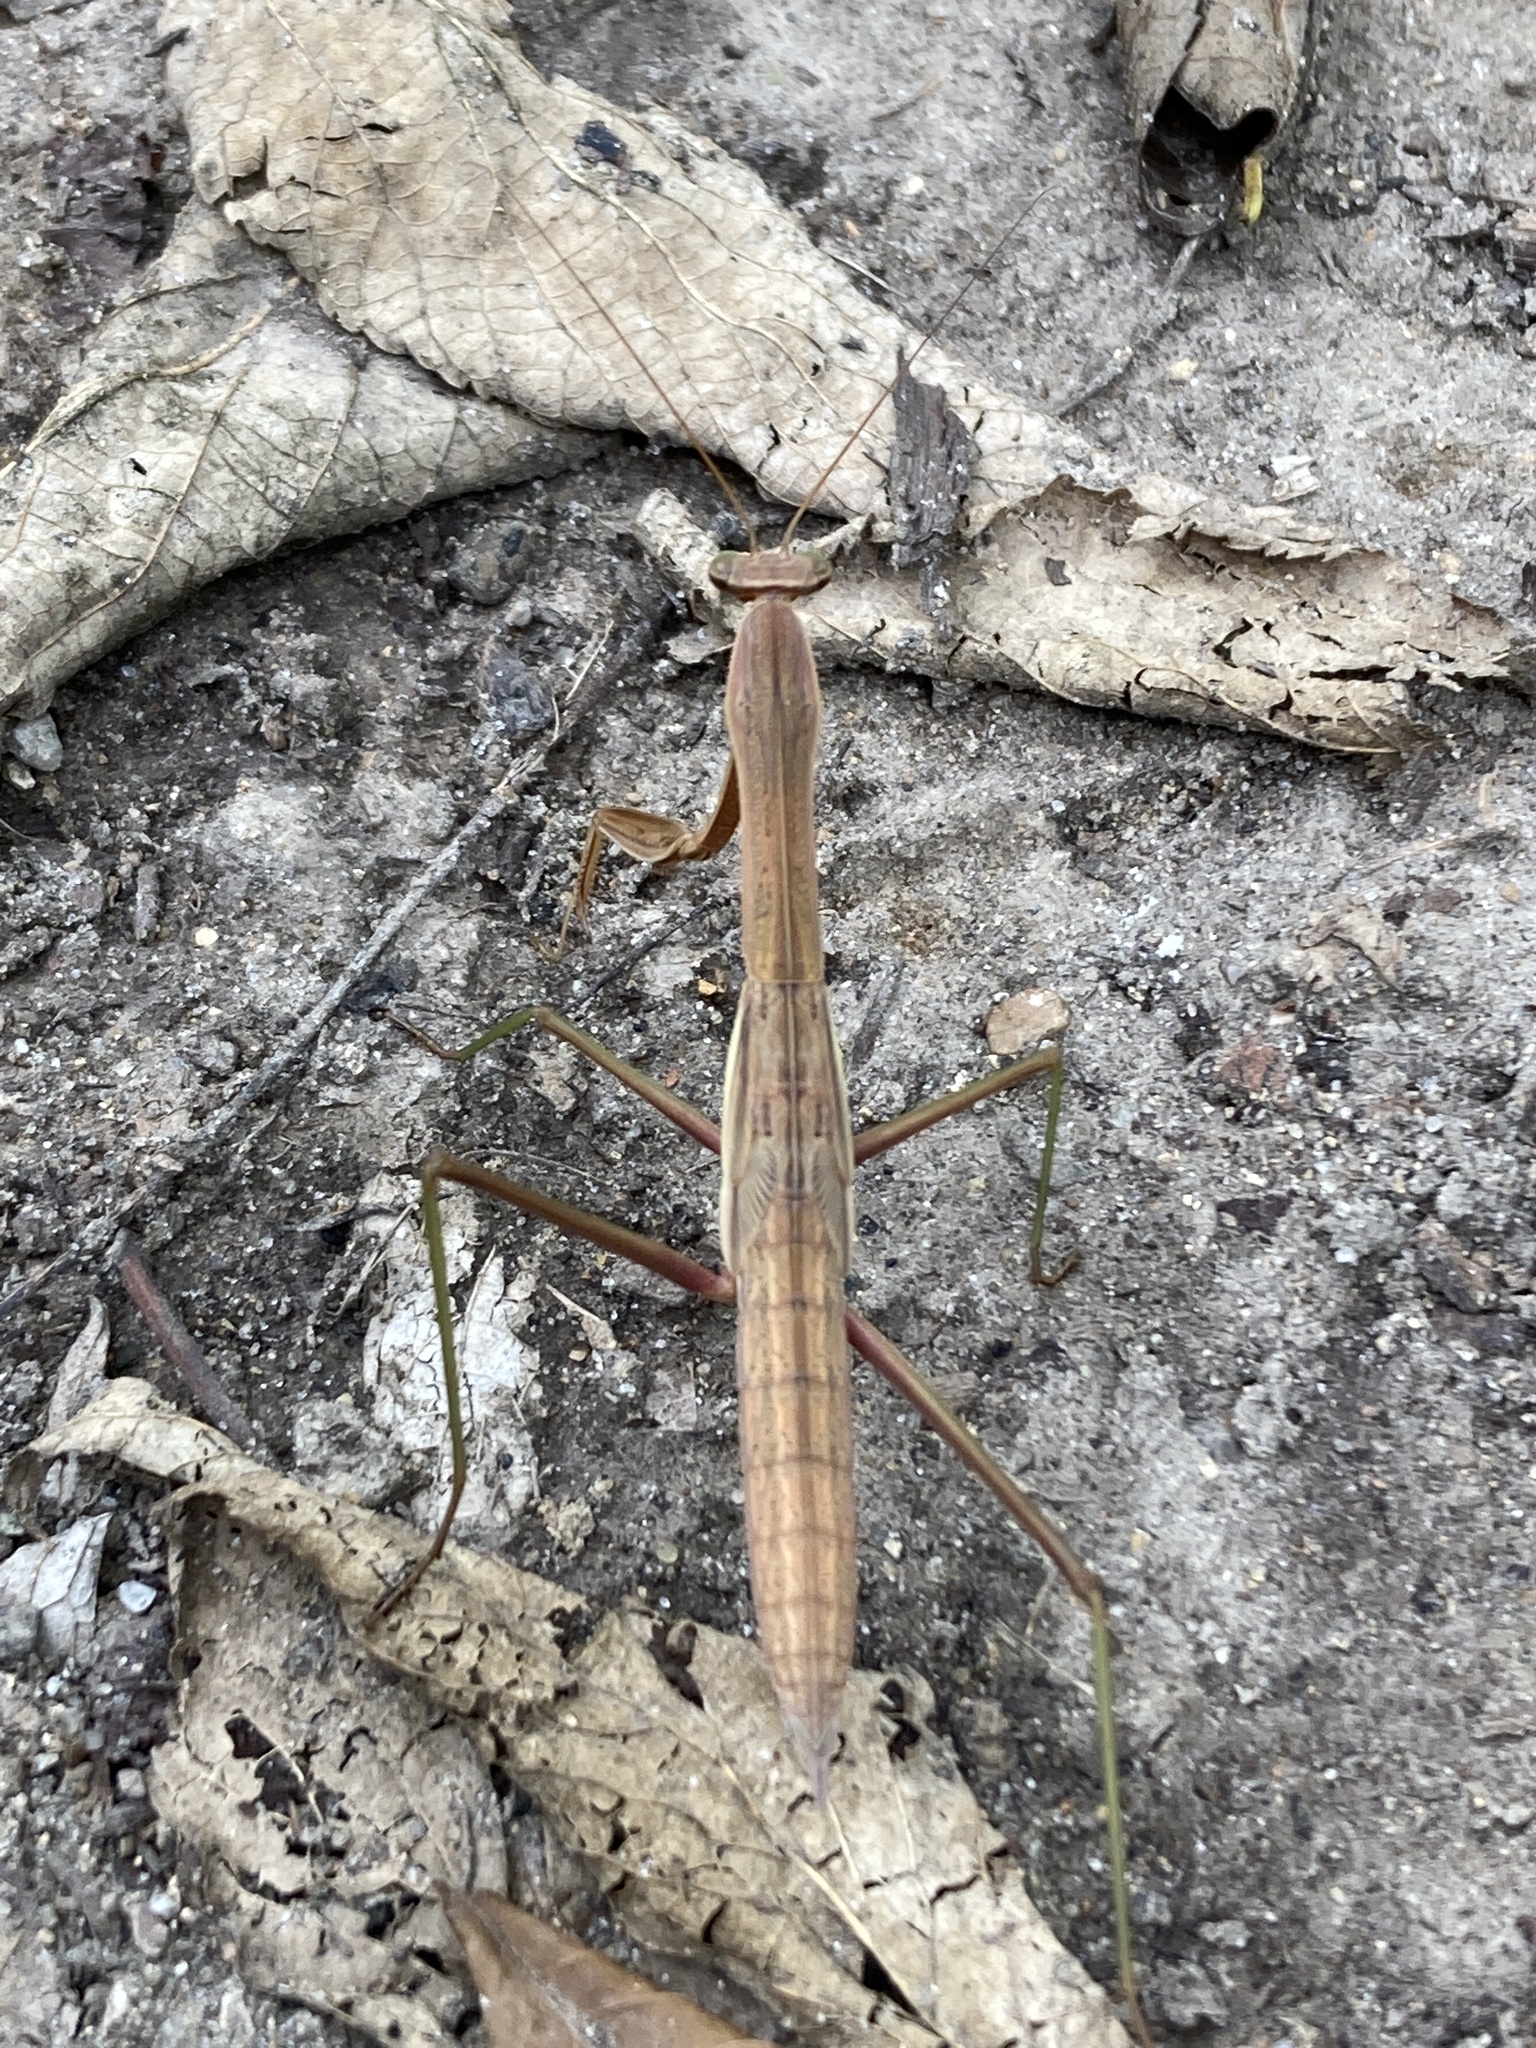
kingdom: Animalia
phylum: Arthropoda
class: Insecta
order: Mantodea
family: Mantidae
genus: Tenodera
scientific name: Tenodera sinensis
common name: Chinese mantis
